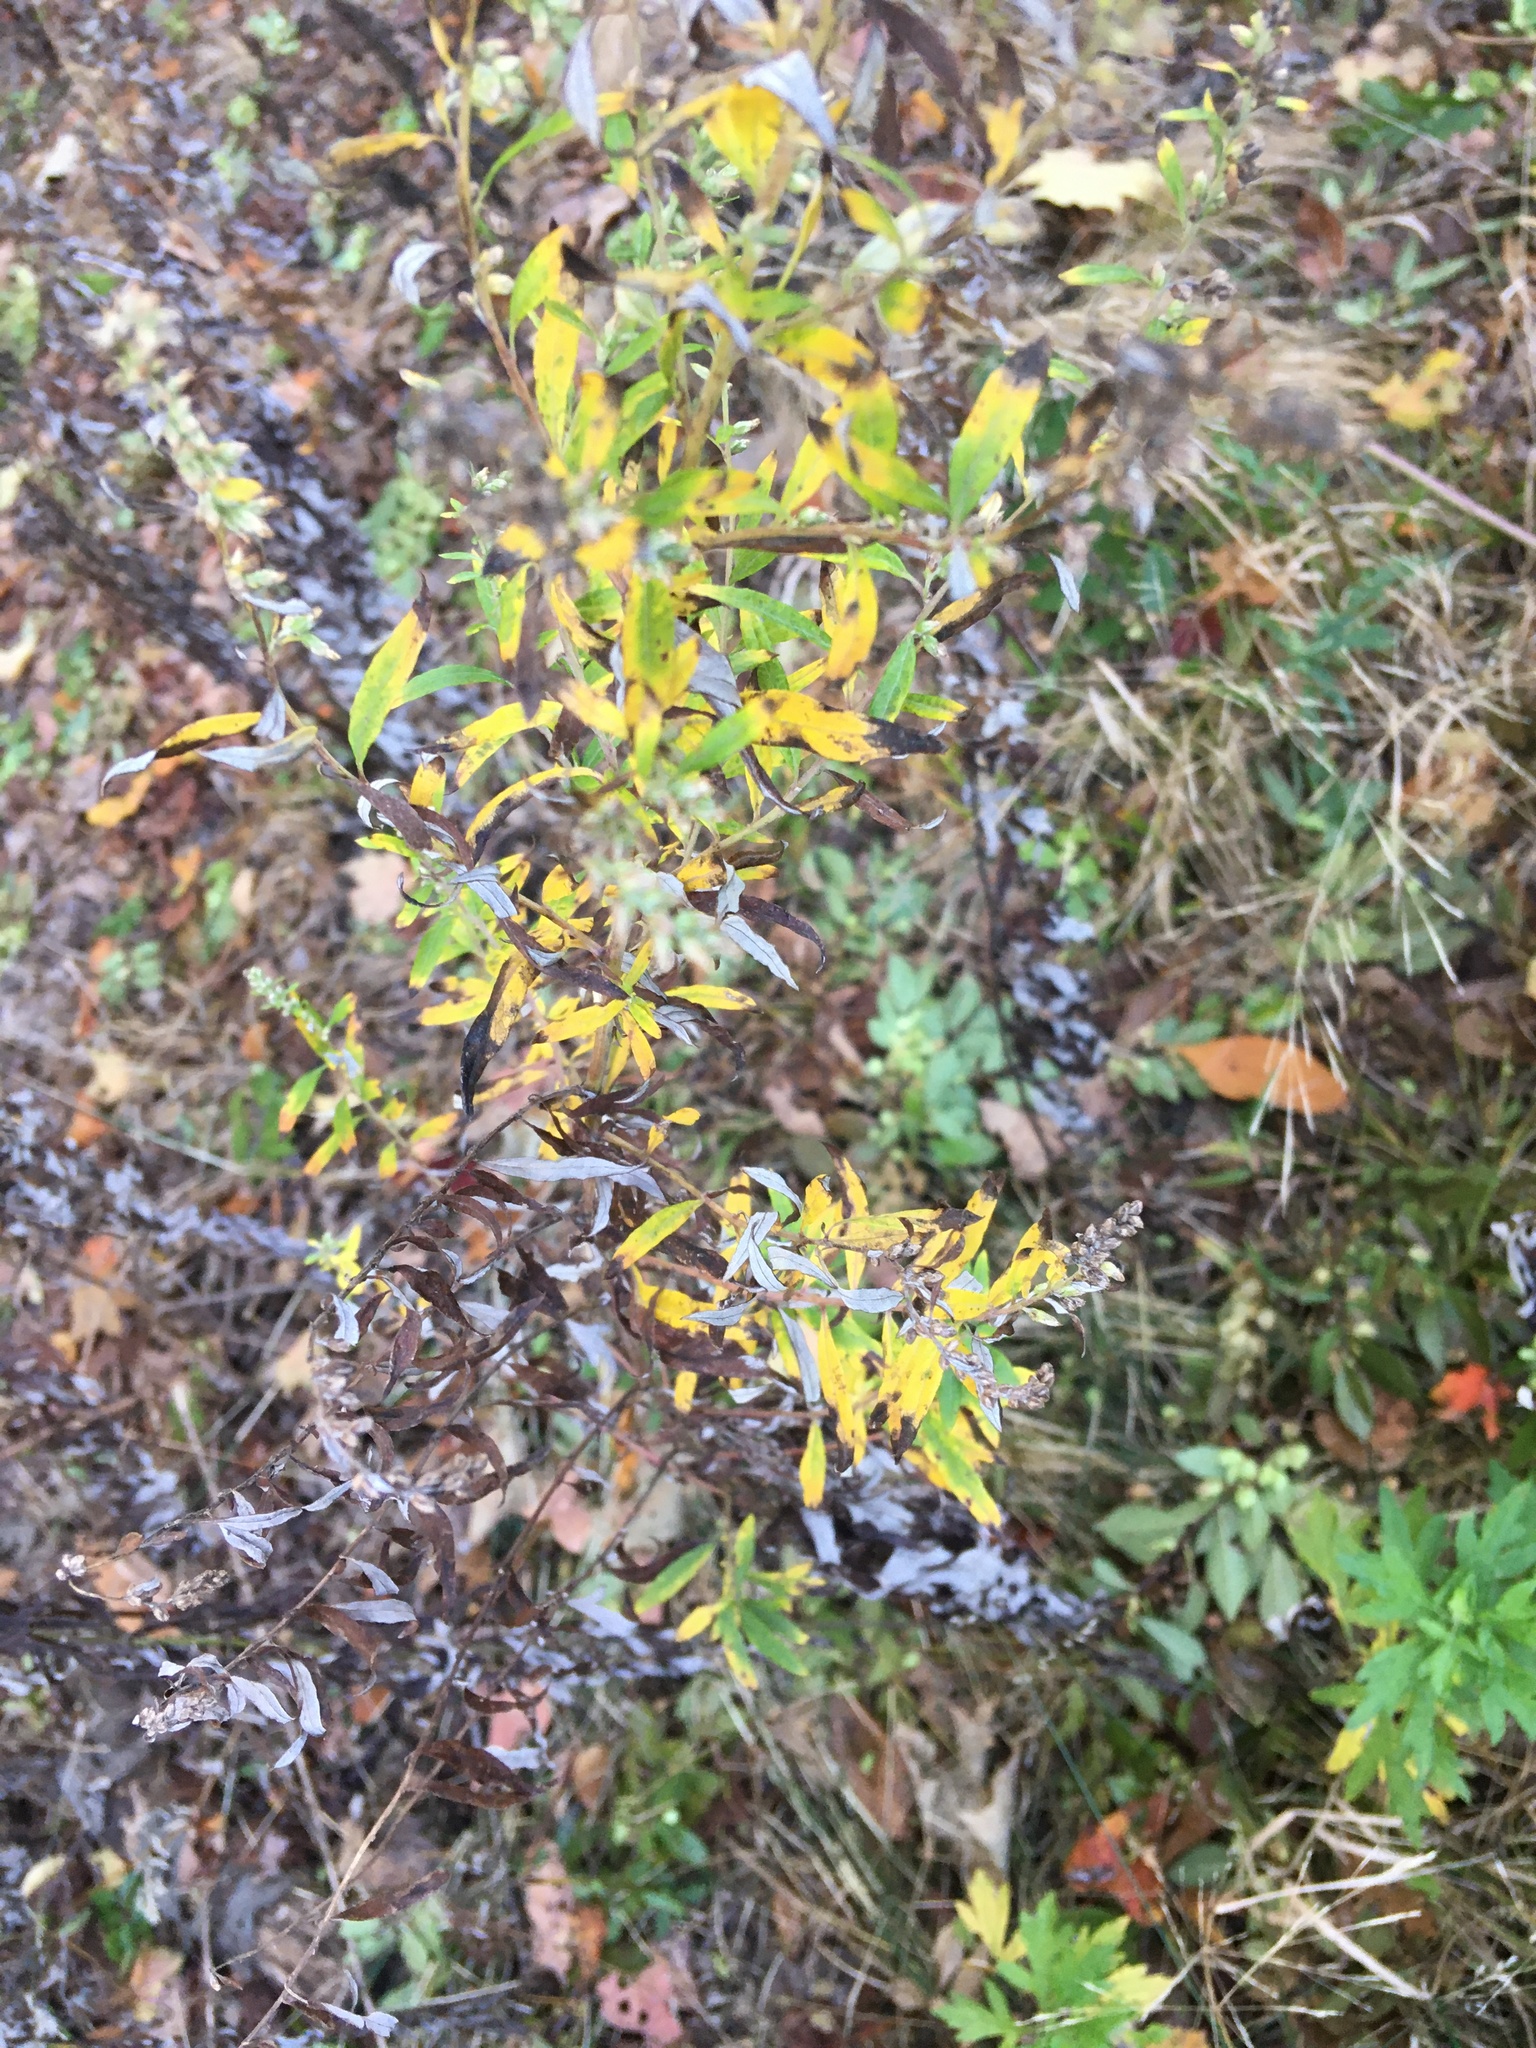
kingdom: Plantae
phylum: Tracheophyta
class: Magnoliopsida
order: Asterales
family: Asteraceae
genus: Artemisia
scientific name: Artemisia vulgaris
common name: Mugwort
